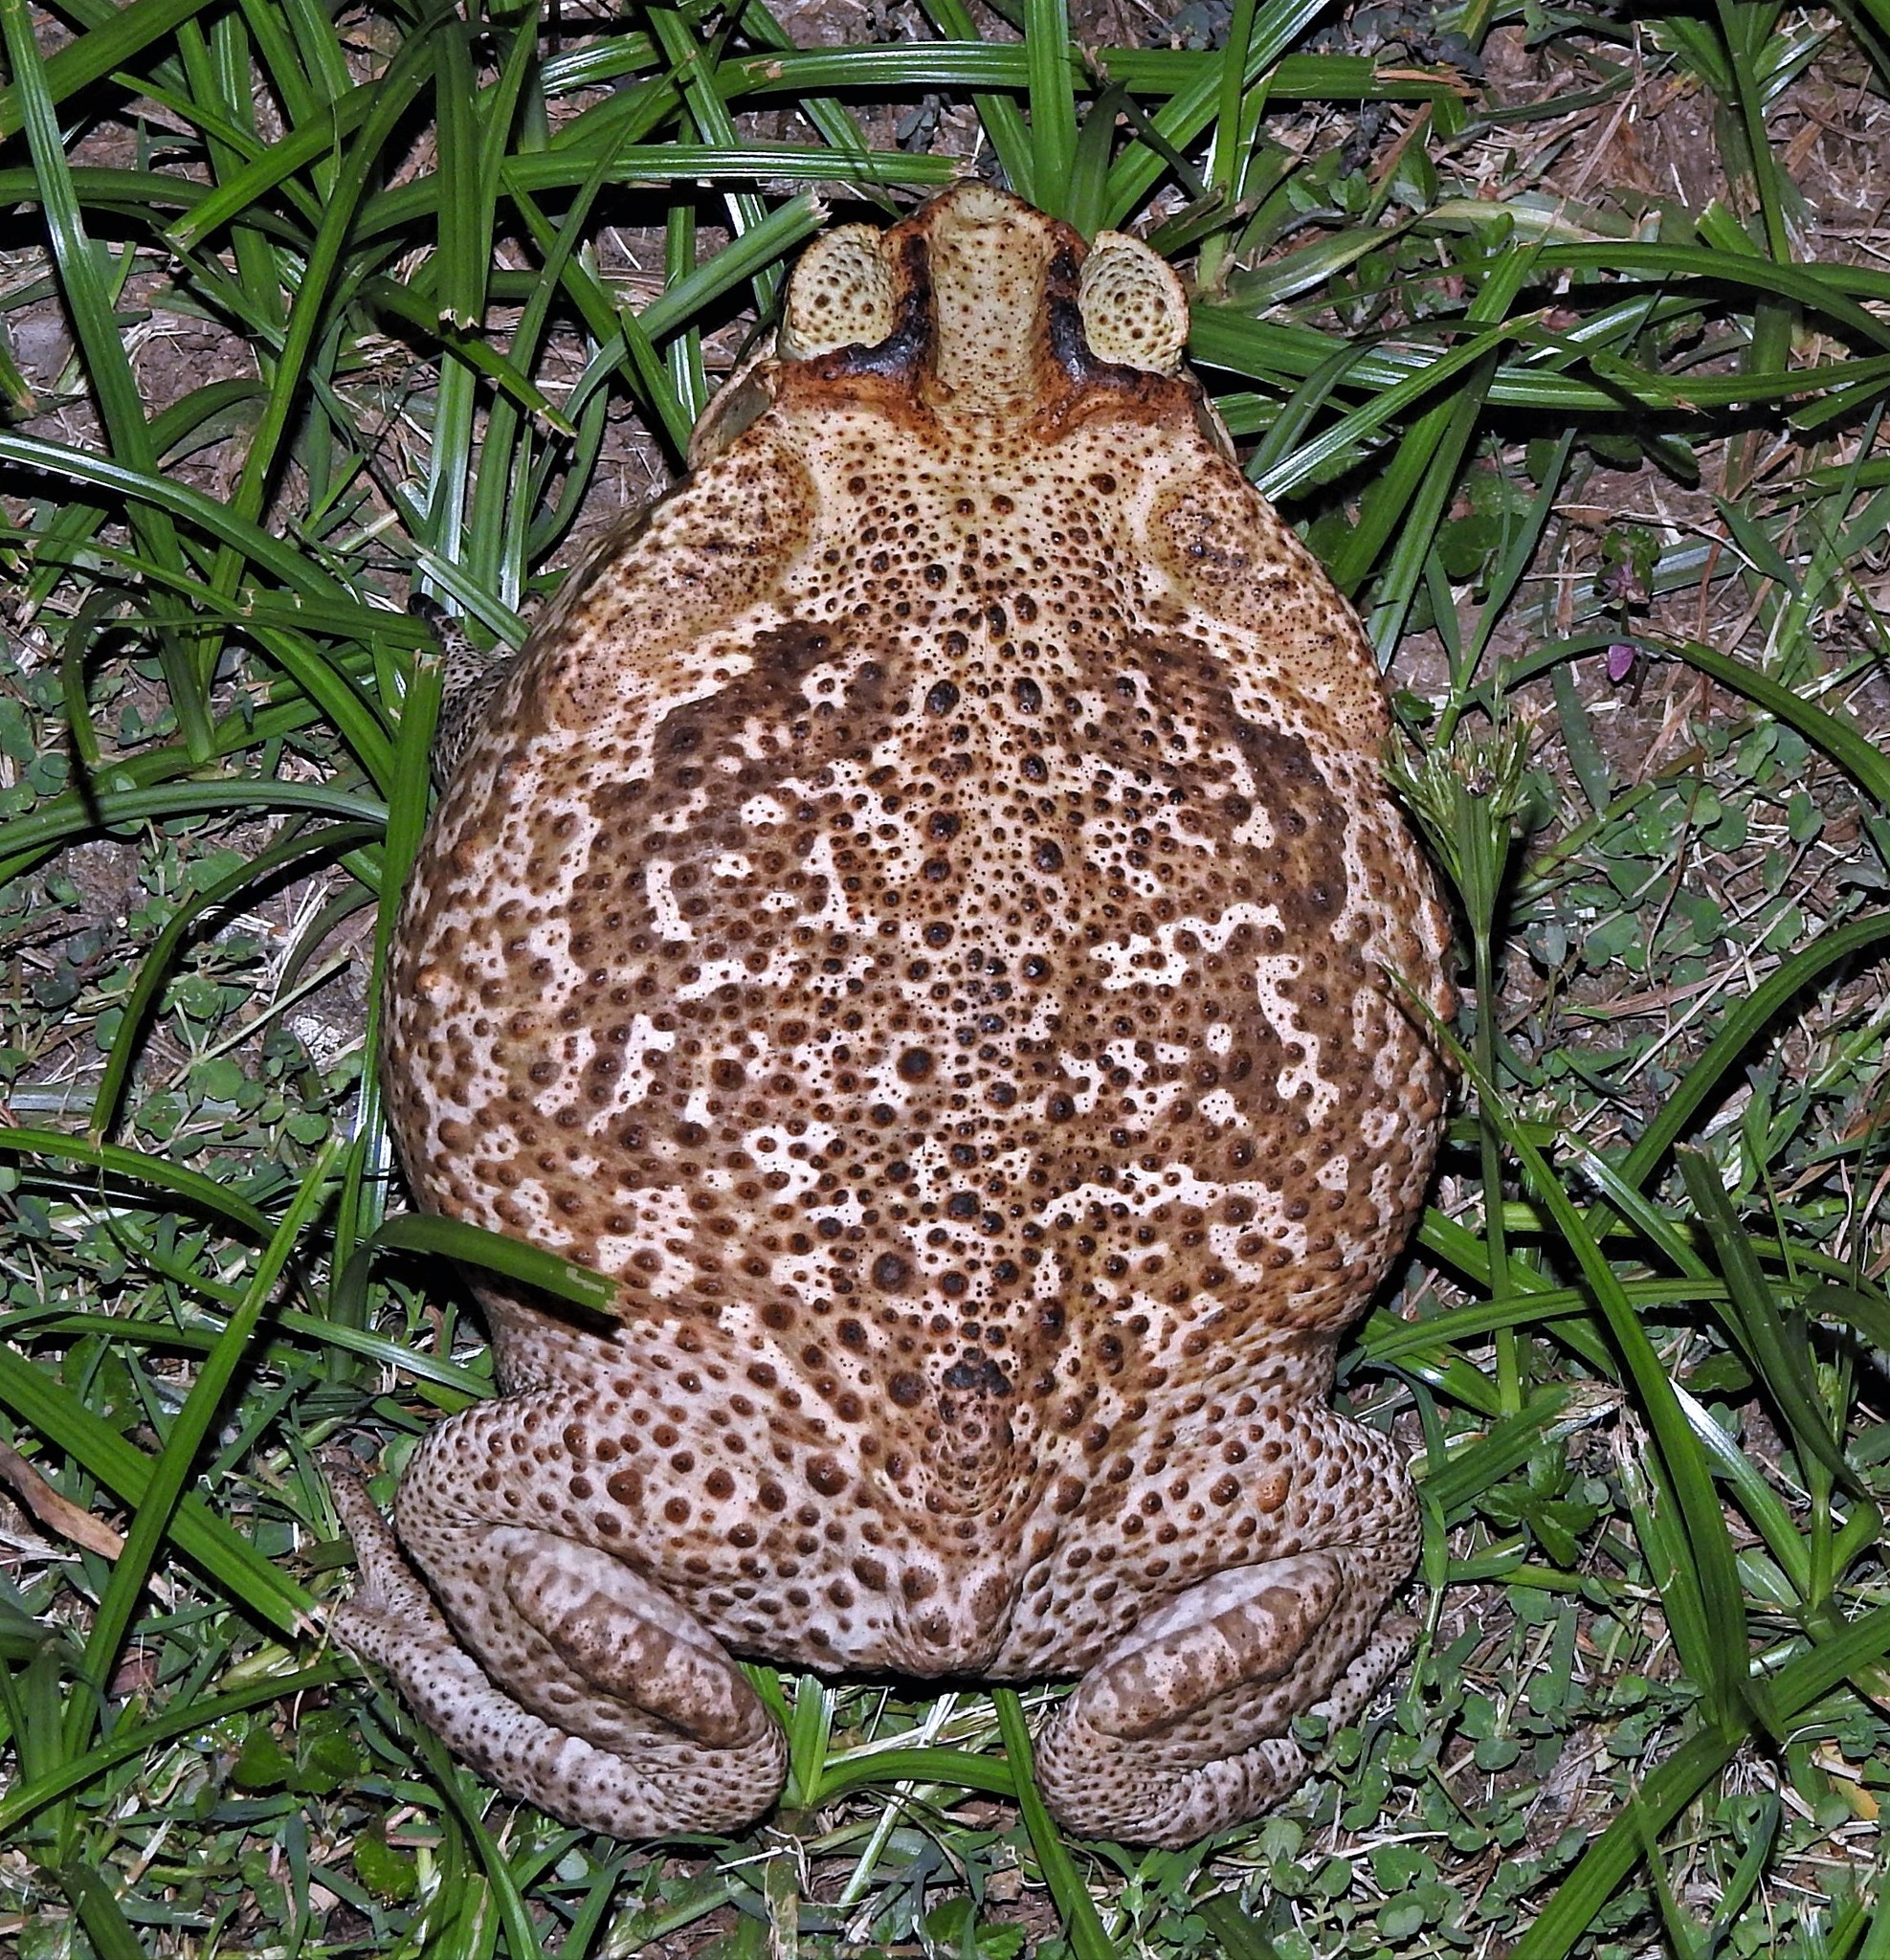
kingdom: Animalia
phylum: Chordata
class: Amphibia
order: Anura
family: Bufonidae
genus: Rhinella
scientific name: Rhinella diptycha
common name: Cope's toad
